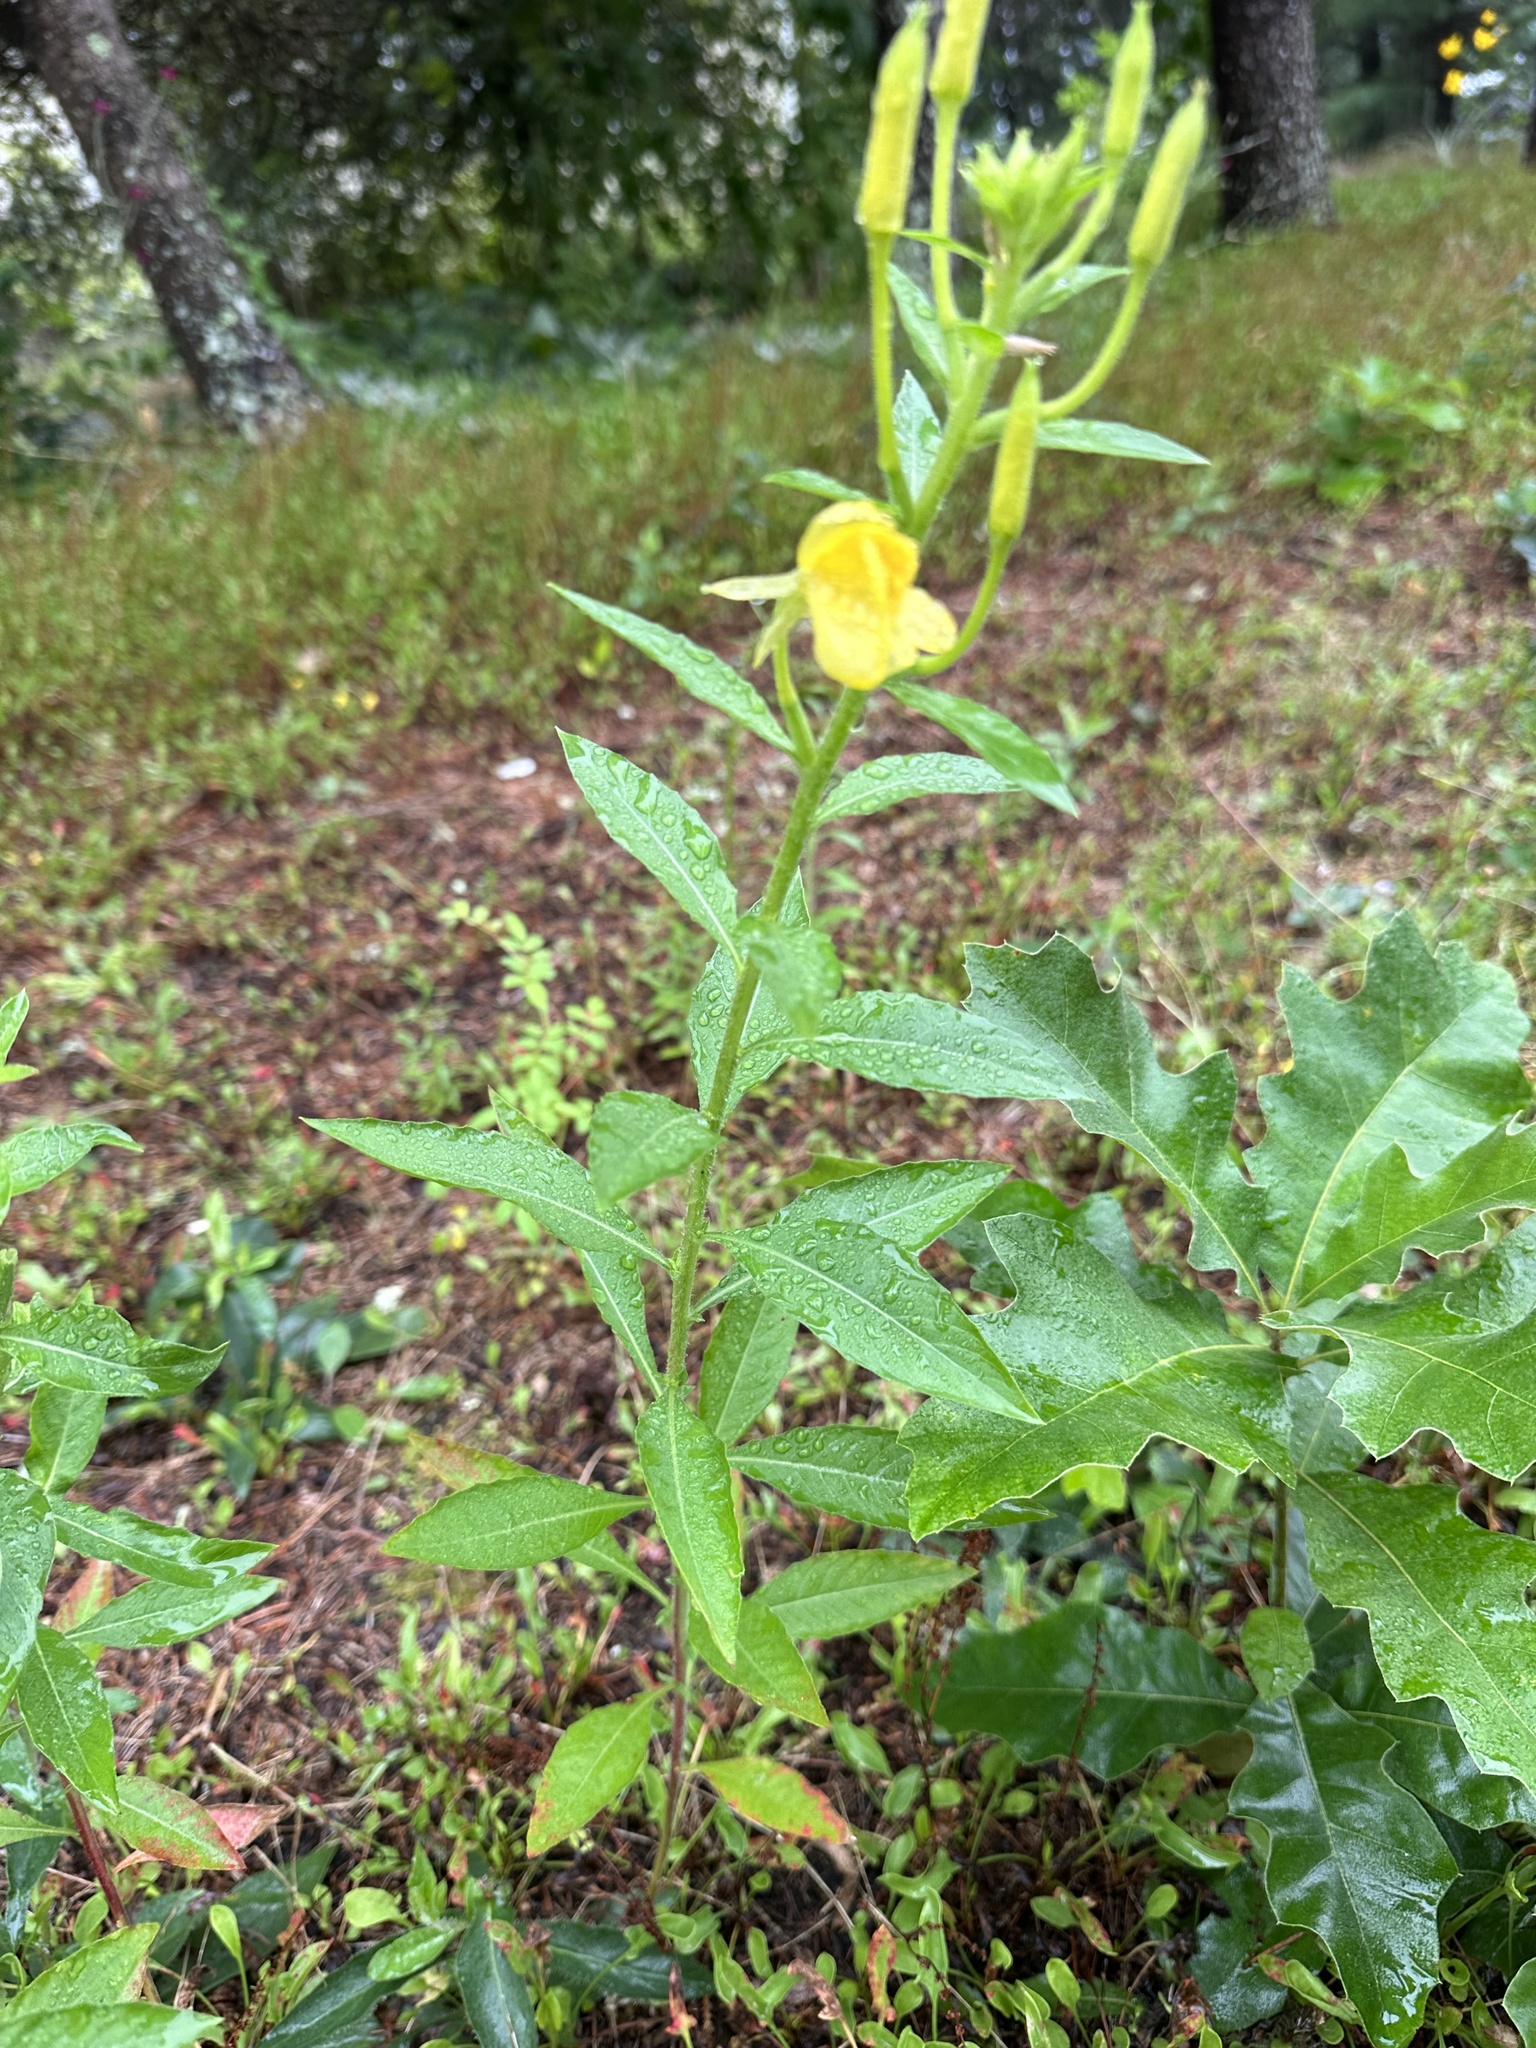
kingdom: Plantae
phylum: Tracheophyta
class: Magnoliopsida
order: Myrtales
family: Onagraceae
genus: Oenothera
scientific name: Oenothera biennis
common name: Common evening-primrose
